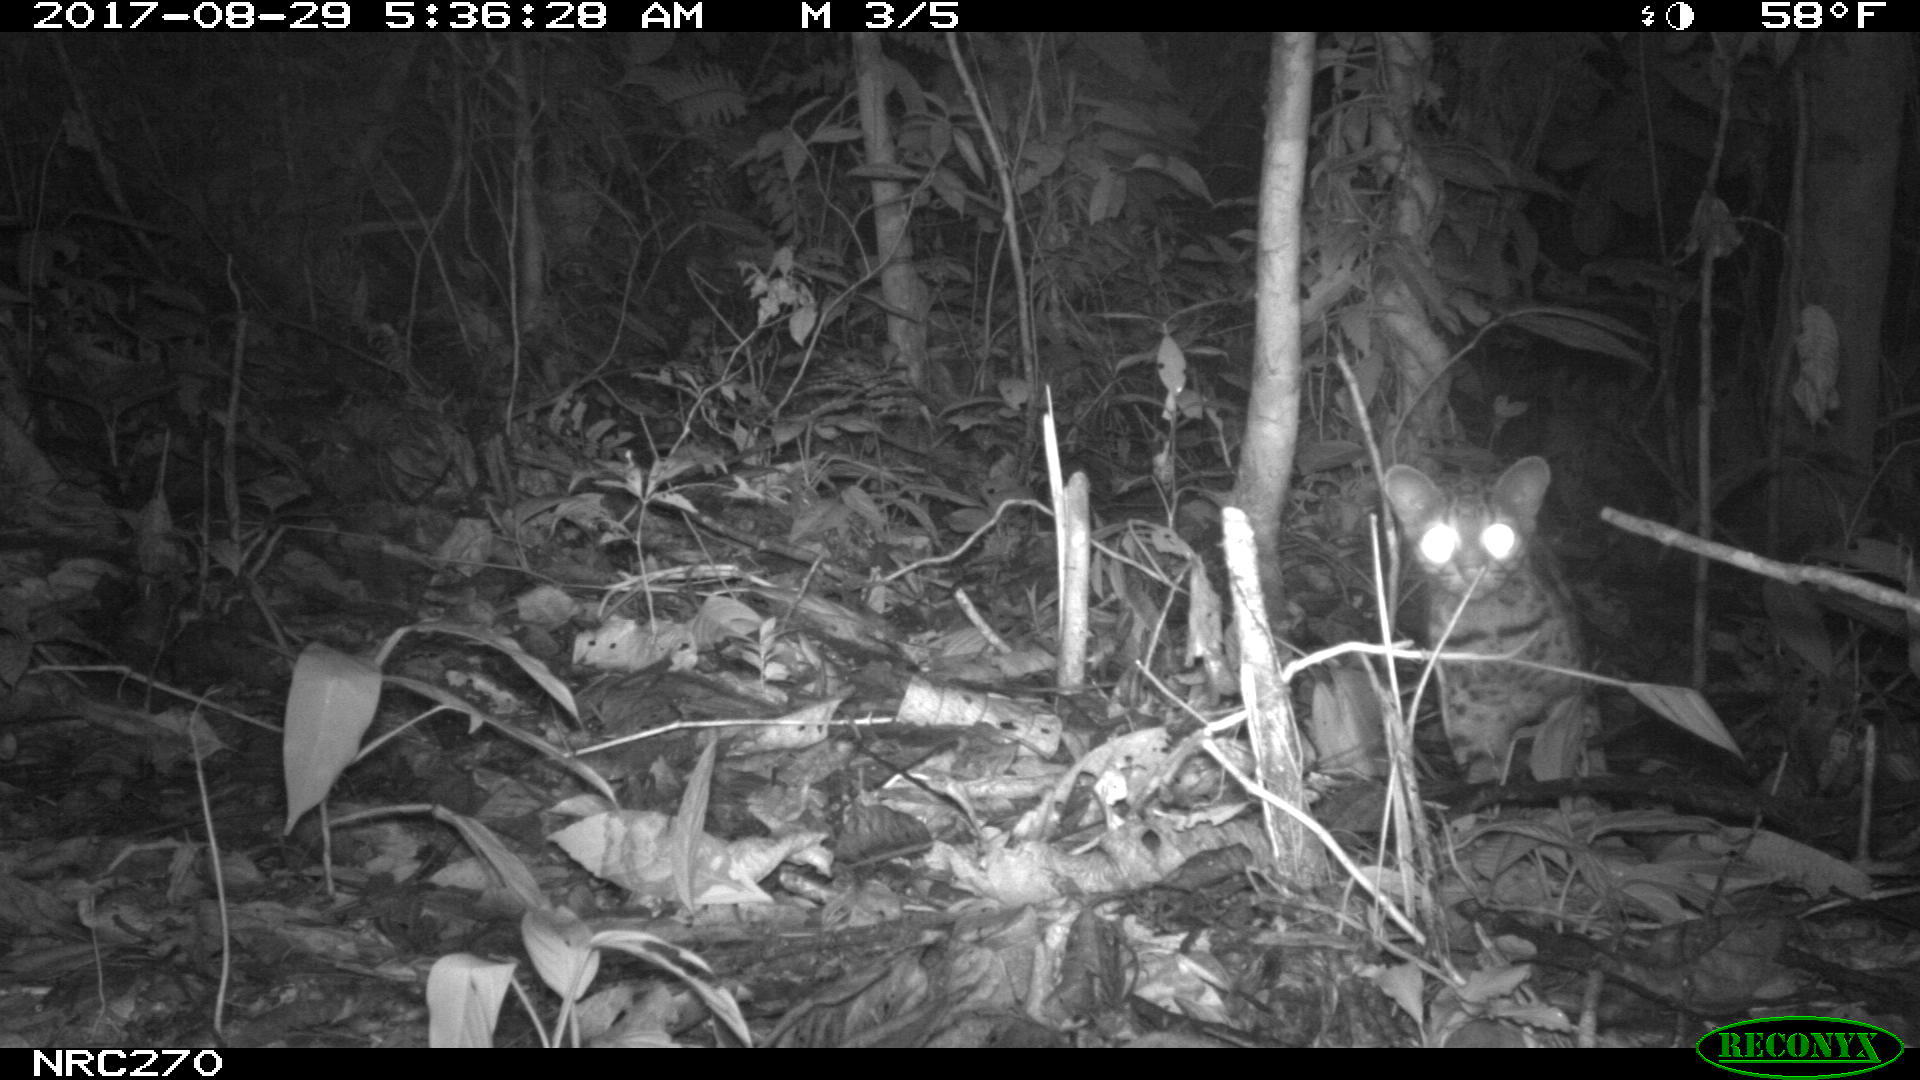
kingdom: Animalia
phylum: Chordata
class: Mammalia
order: Carnivora
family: Felidae
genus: Leopardus
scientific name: Leopardus tigrinus
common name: Oncilla
